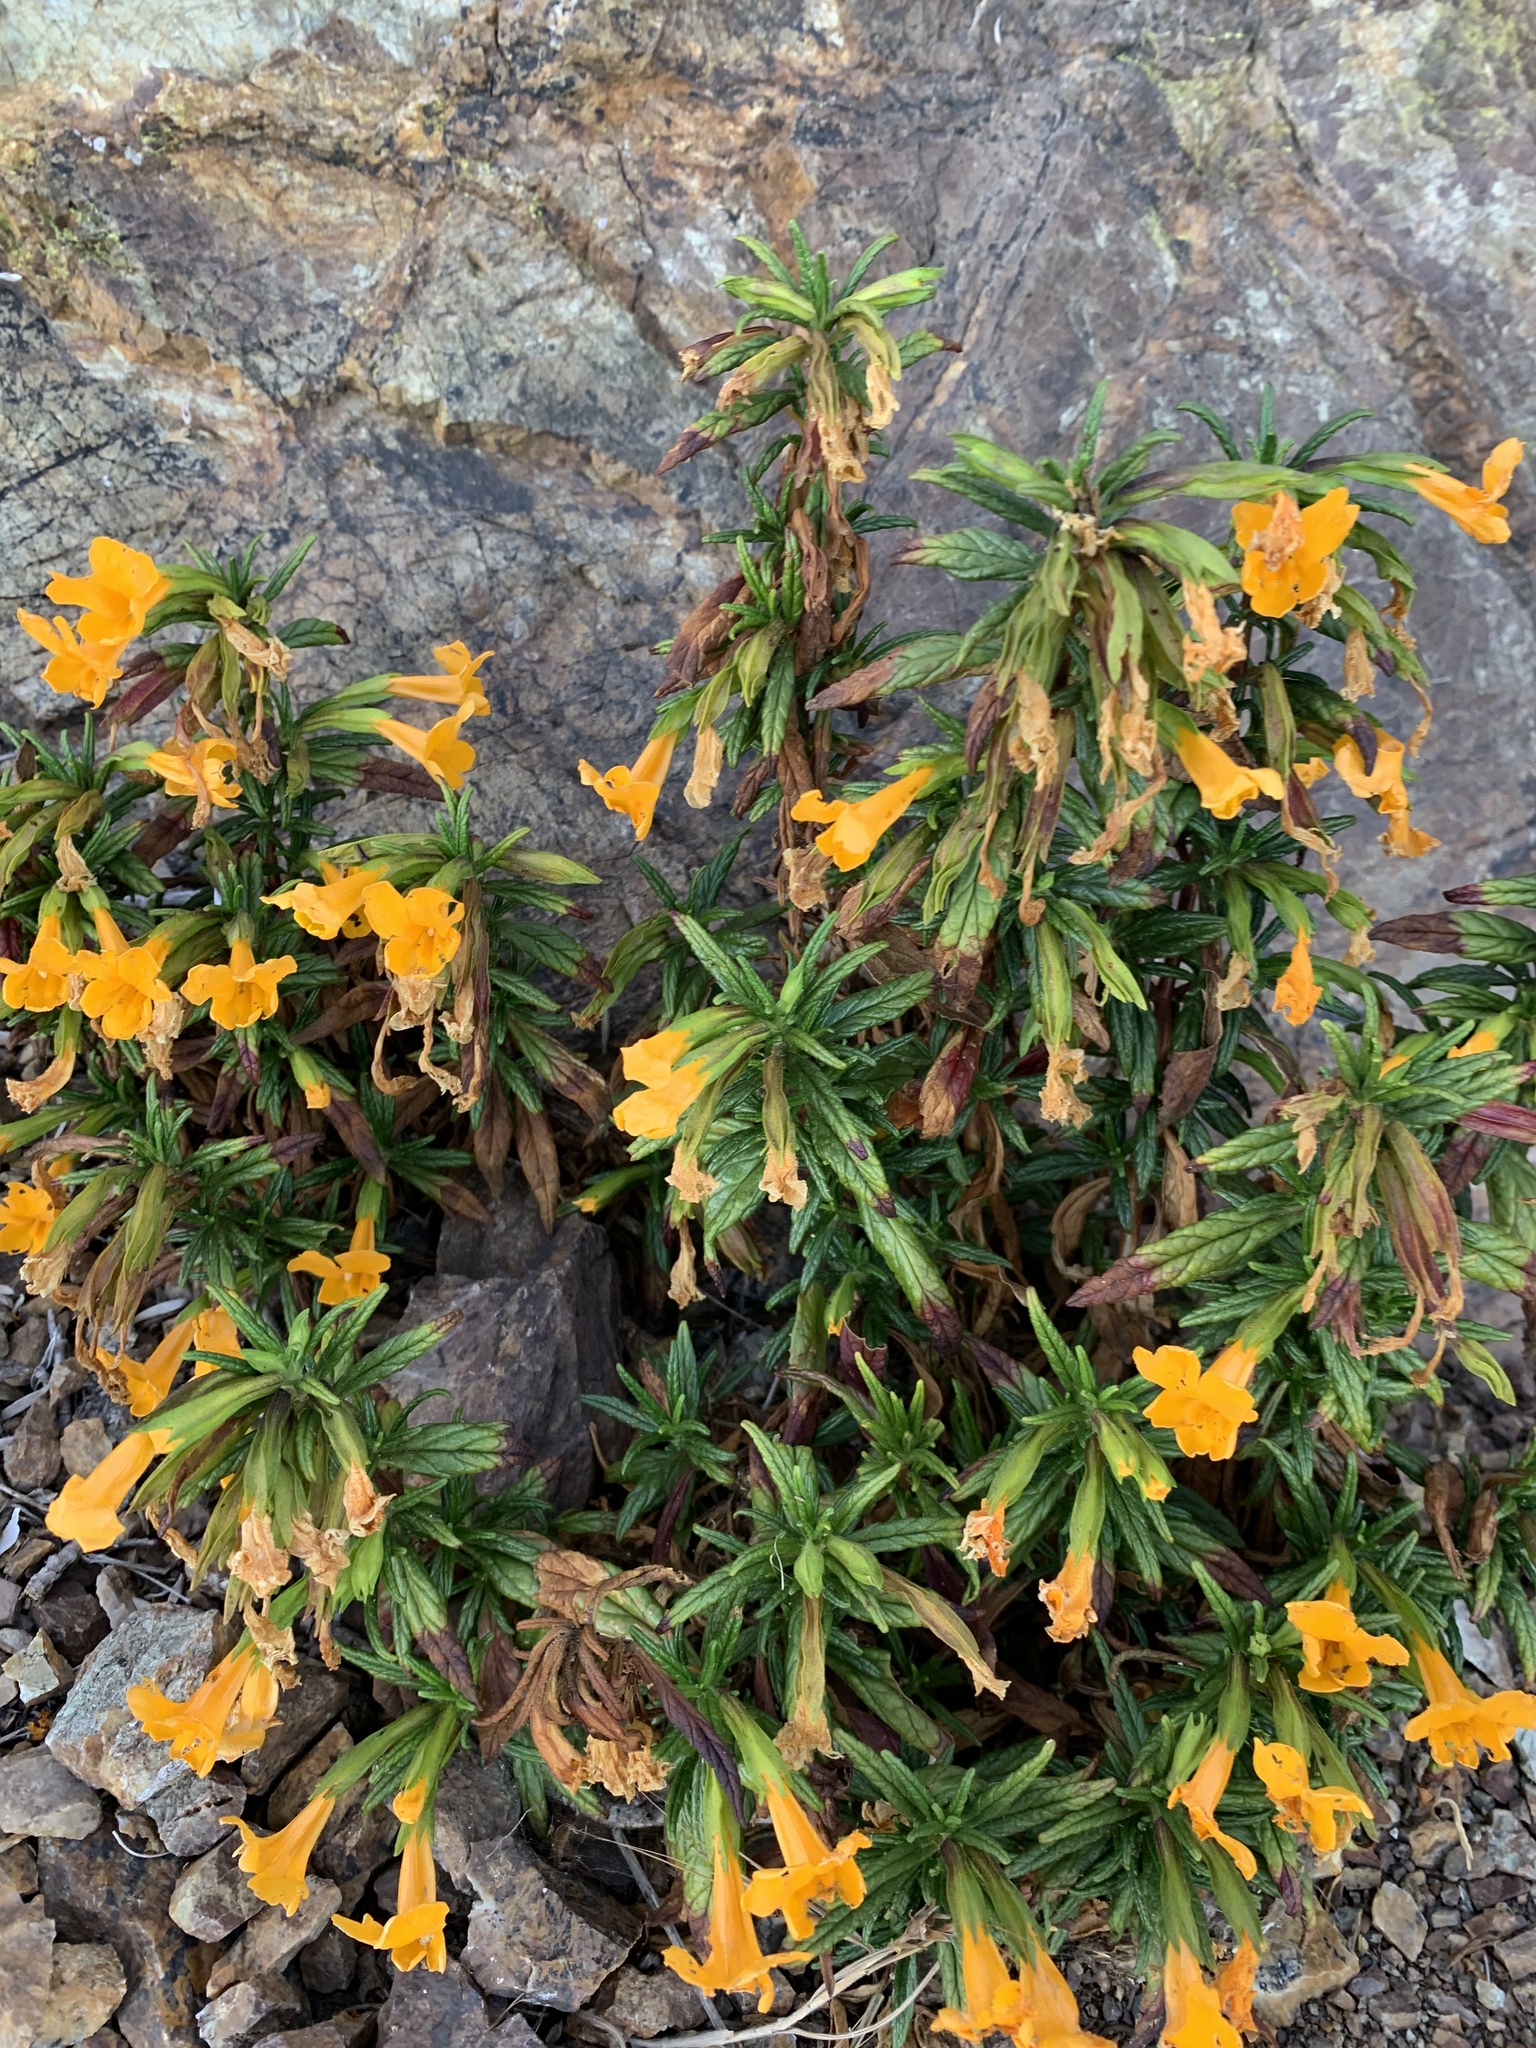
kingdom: Plantae
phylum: Tracheophyta
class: Magnoliopsida
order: Lamiales
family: Phrymaceae
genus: Diplacus
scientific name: Diplacus aurantiacus
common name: Bush monkey-flower
